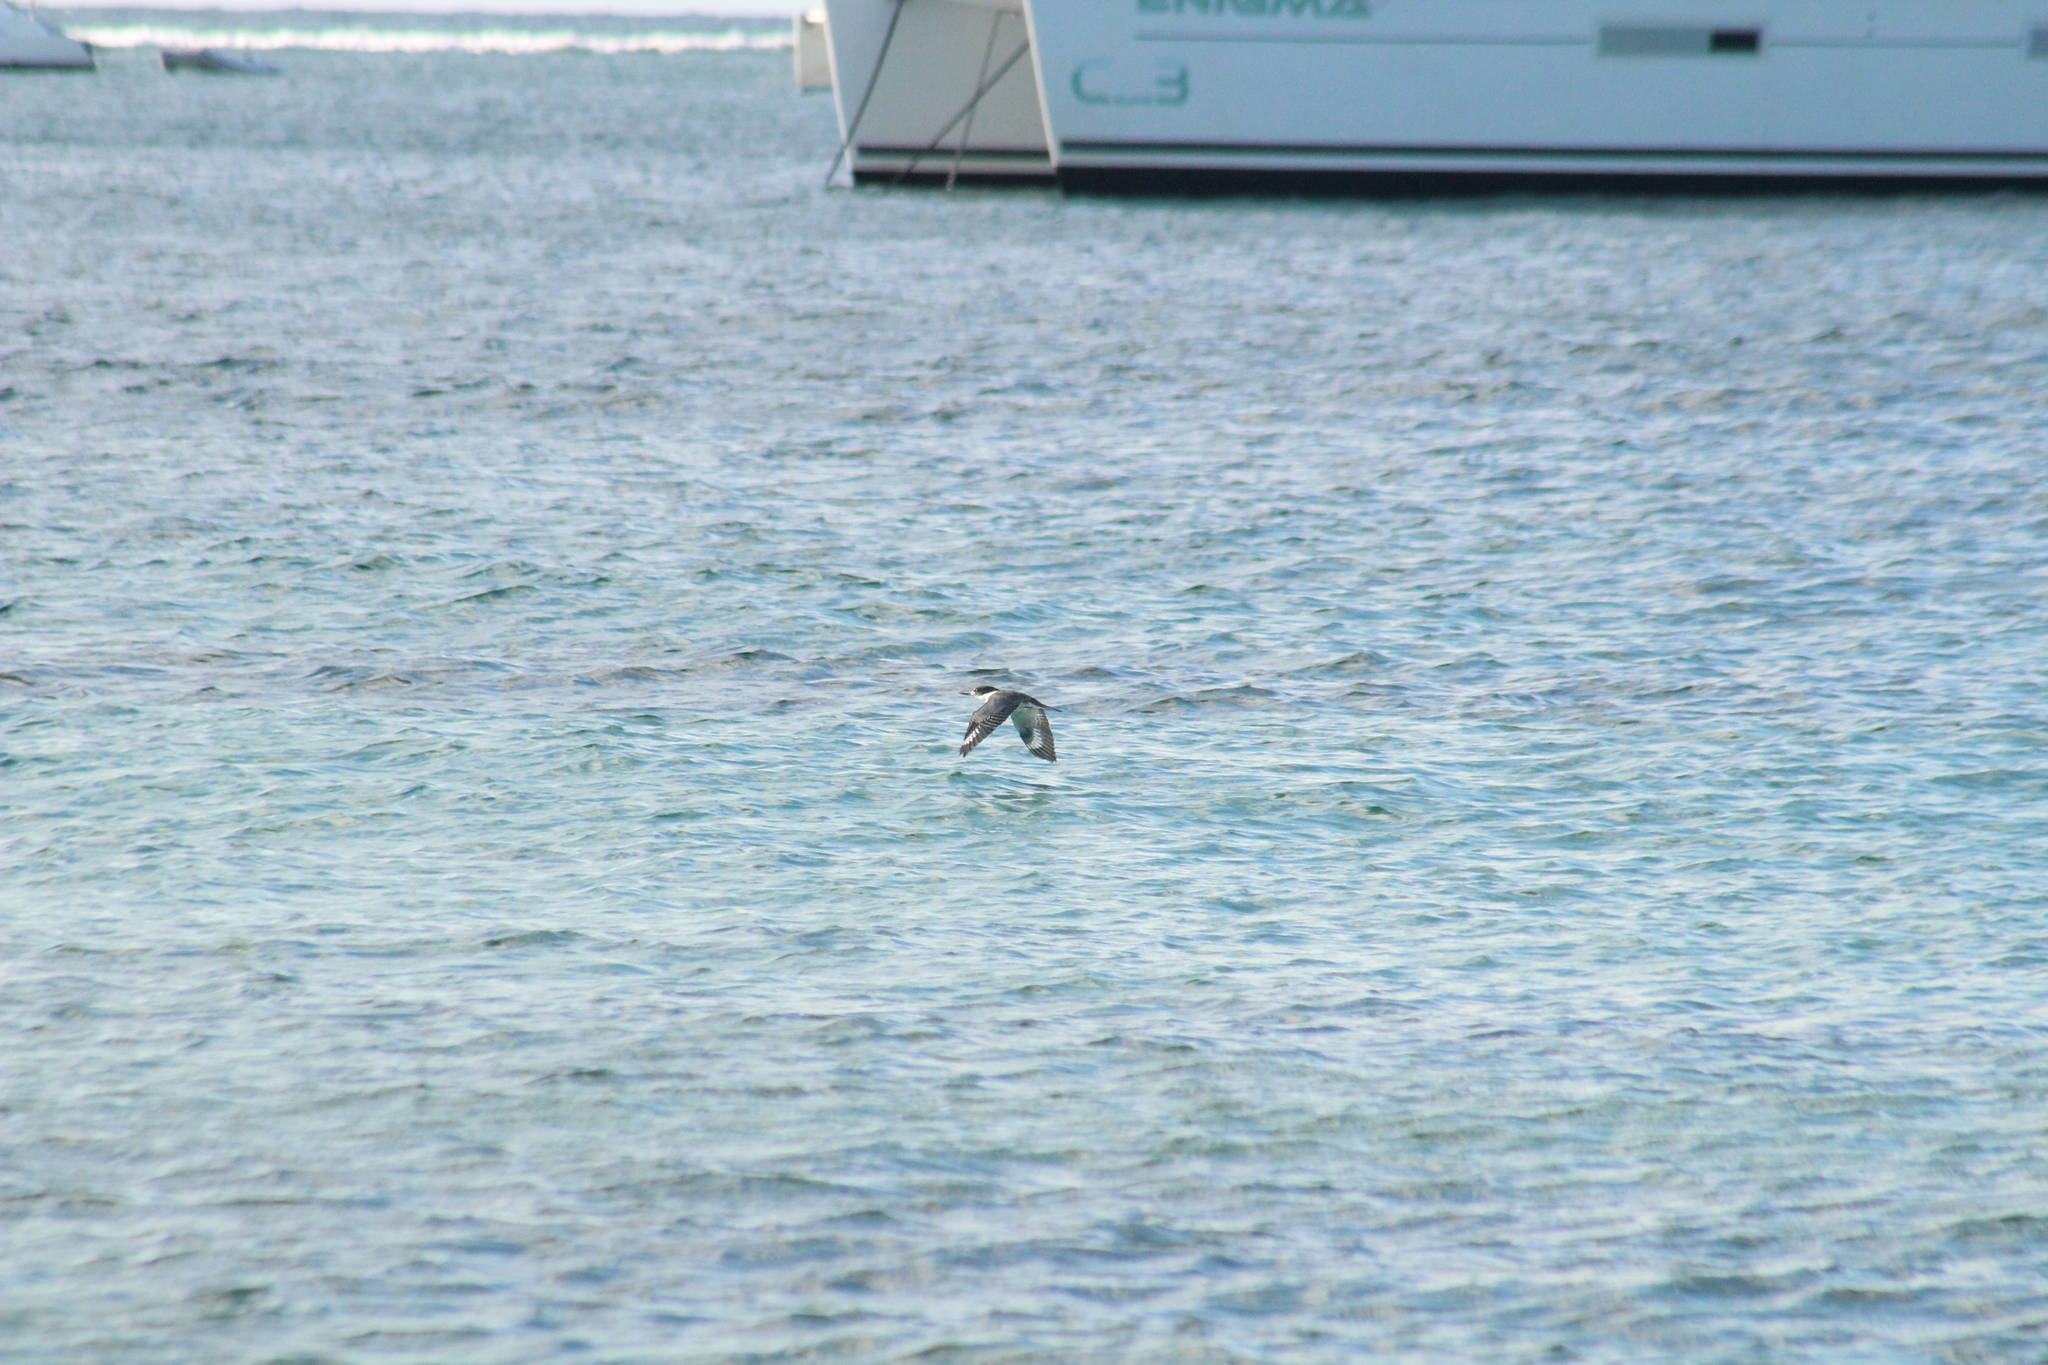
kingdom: Animalia
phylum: Chordata
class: Aves
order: Coraciiformes
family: Alcedinidae
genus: Megaceryle
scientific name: Megaceryle alcyon
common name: Belted kingfisher
